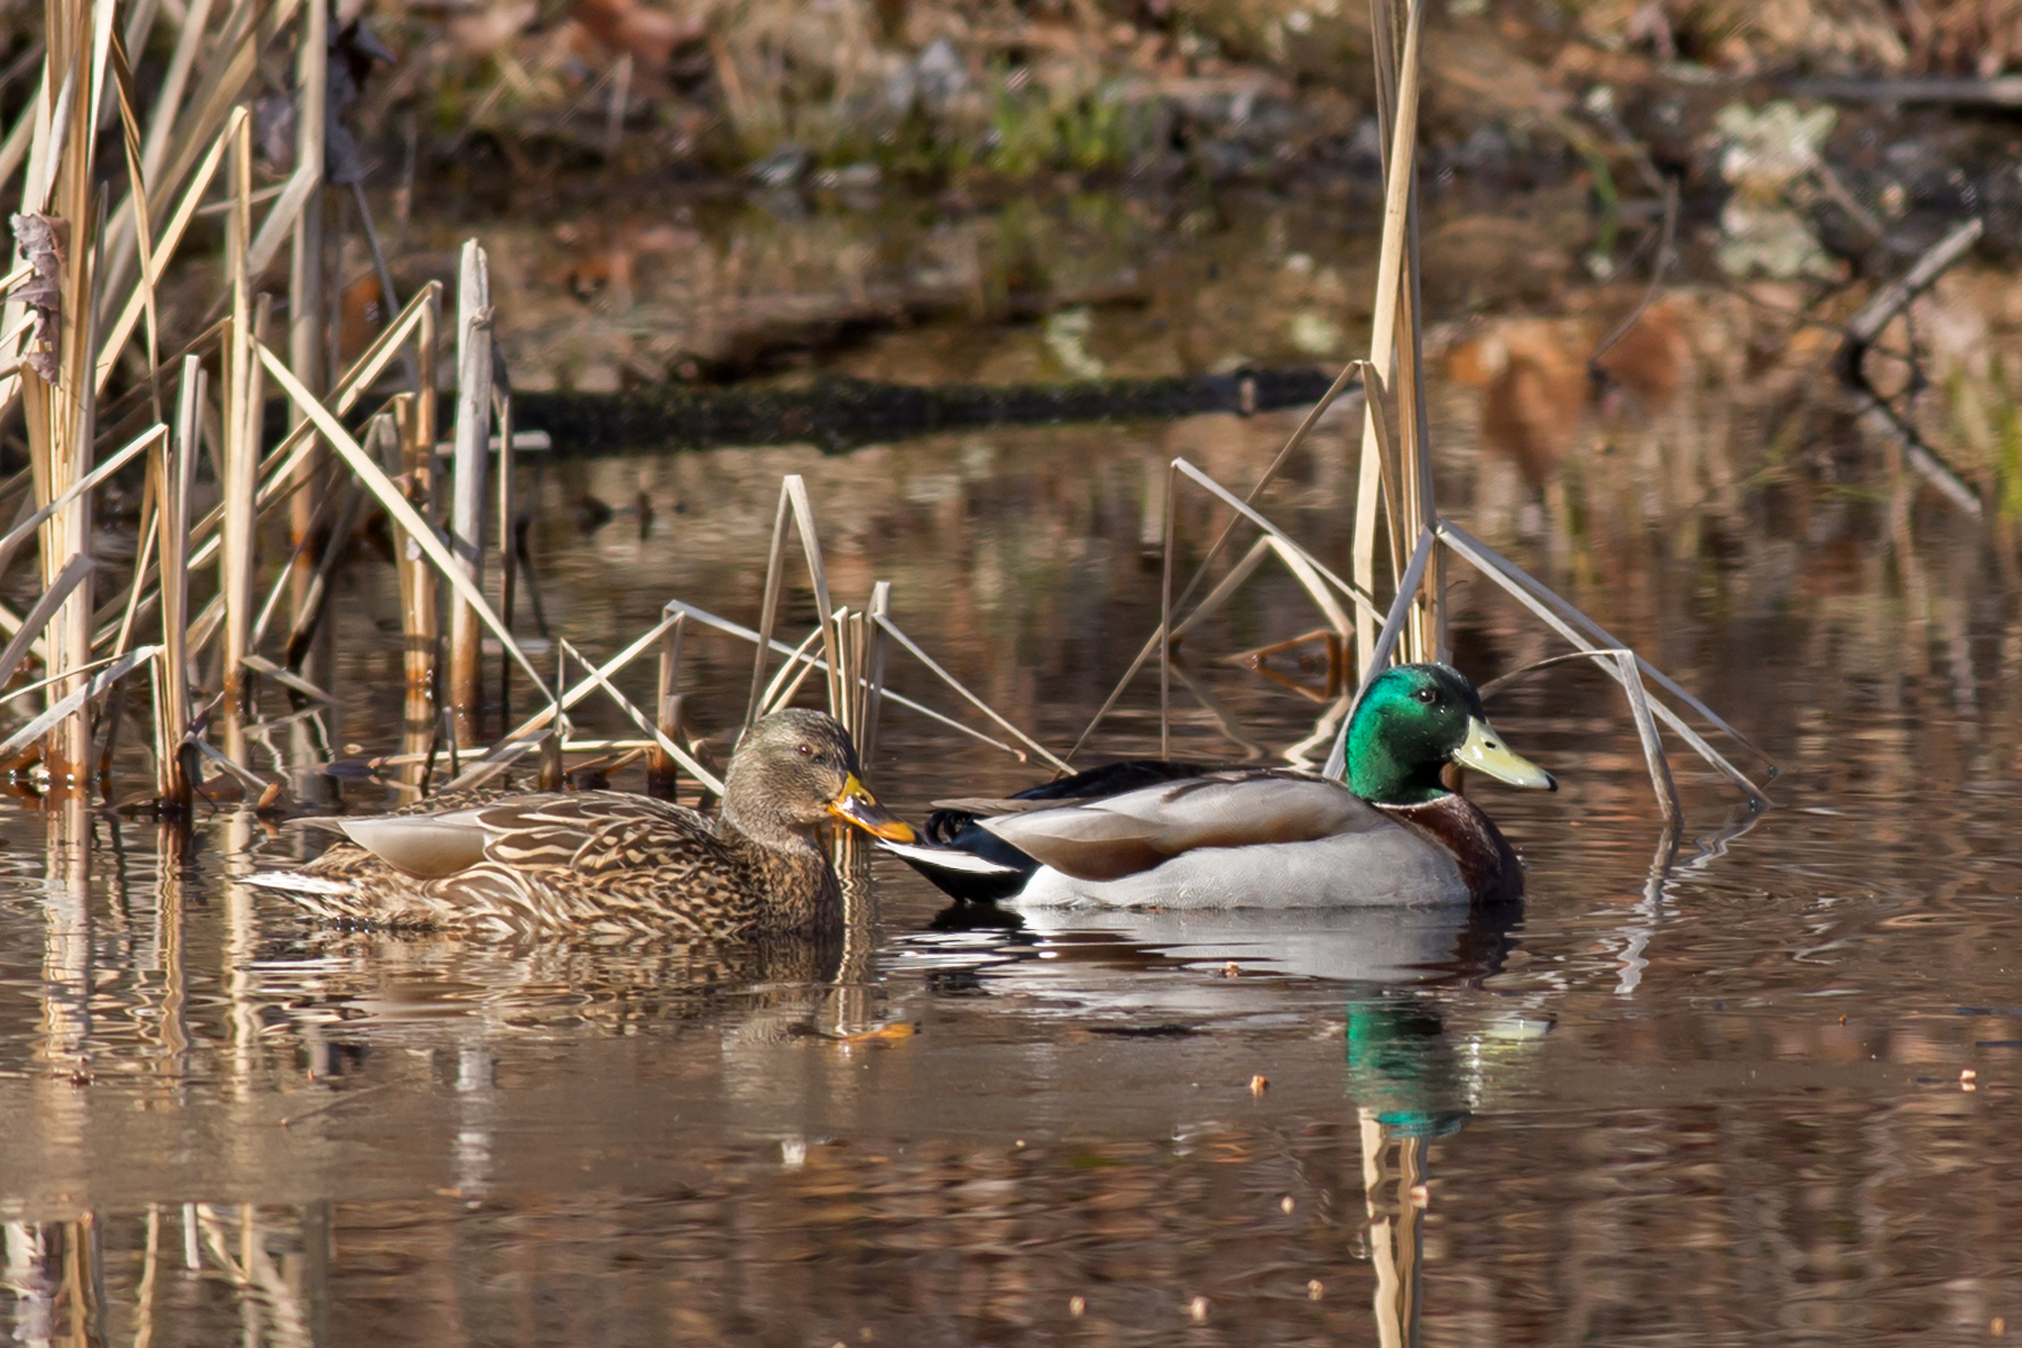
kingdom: Animalia
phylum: Chordata
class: Aves
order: Anseriformes
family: Anatidae
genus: Anas
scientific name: Anas platyrhynchos
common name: Mallard
